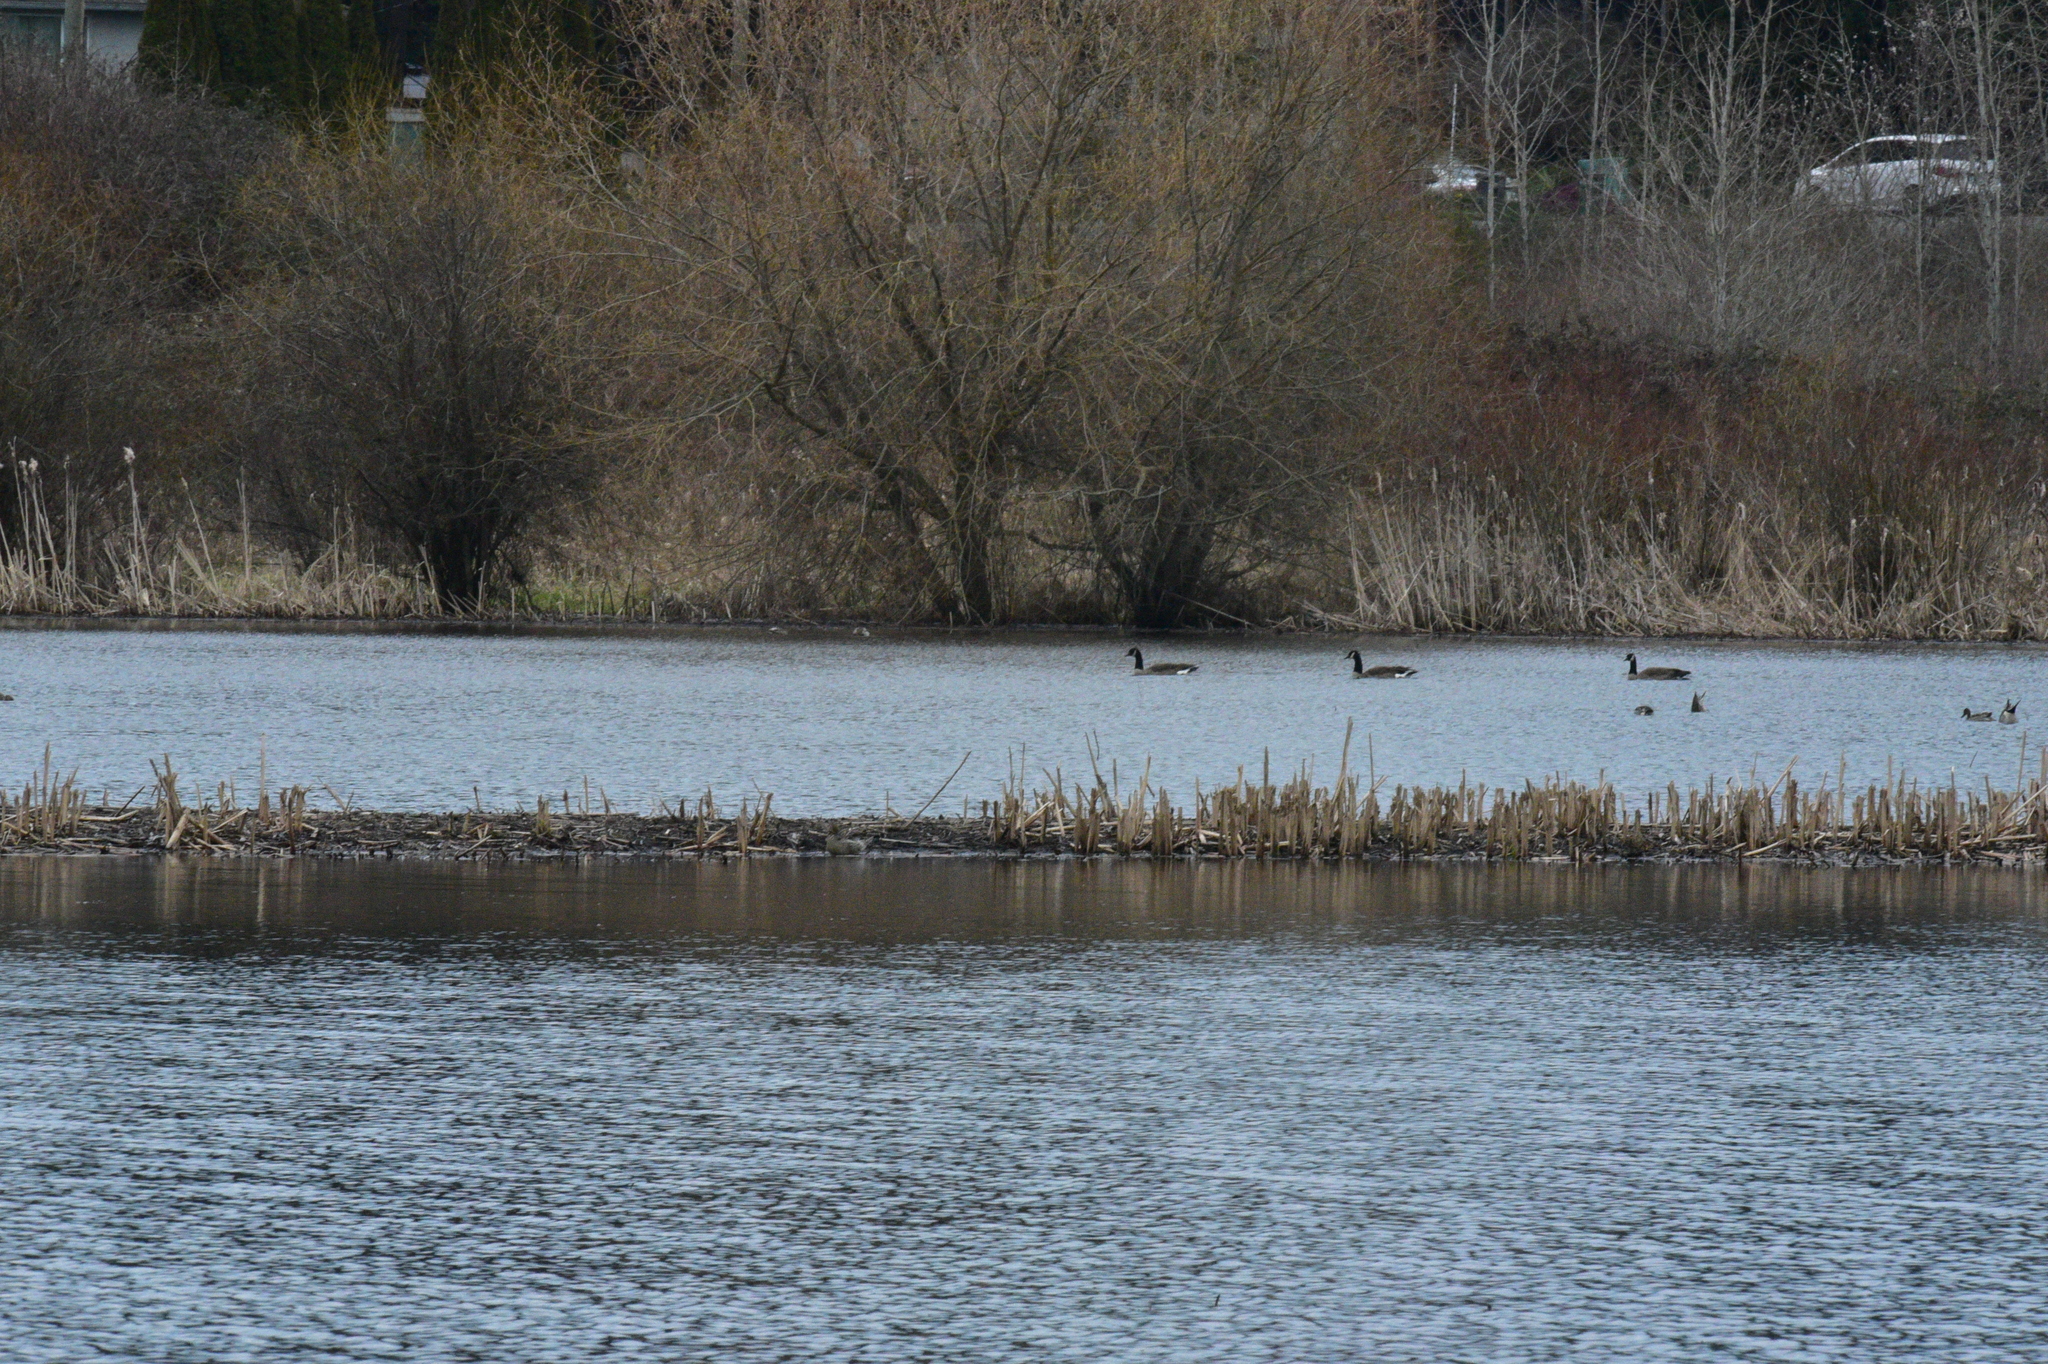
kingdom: Animalia
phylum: Chordata
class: Aves
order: Anseriformes
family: Anatidae
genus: Branta
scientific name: Branta canadensis
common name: Canada goose
